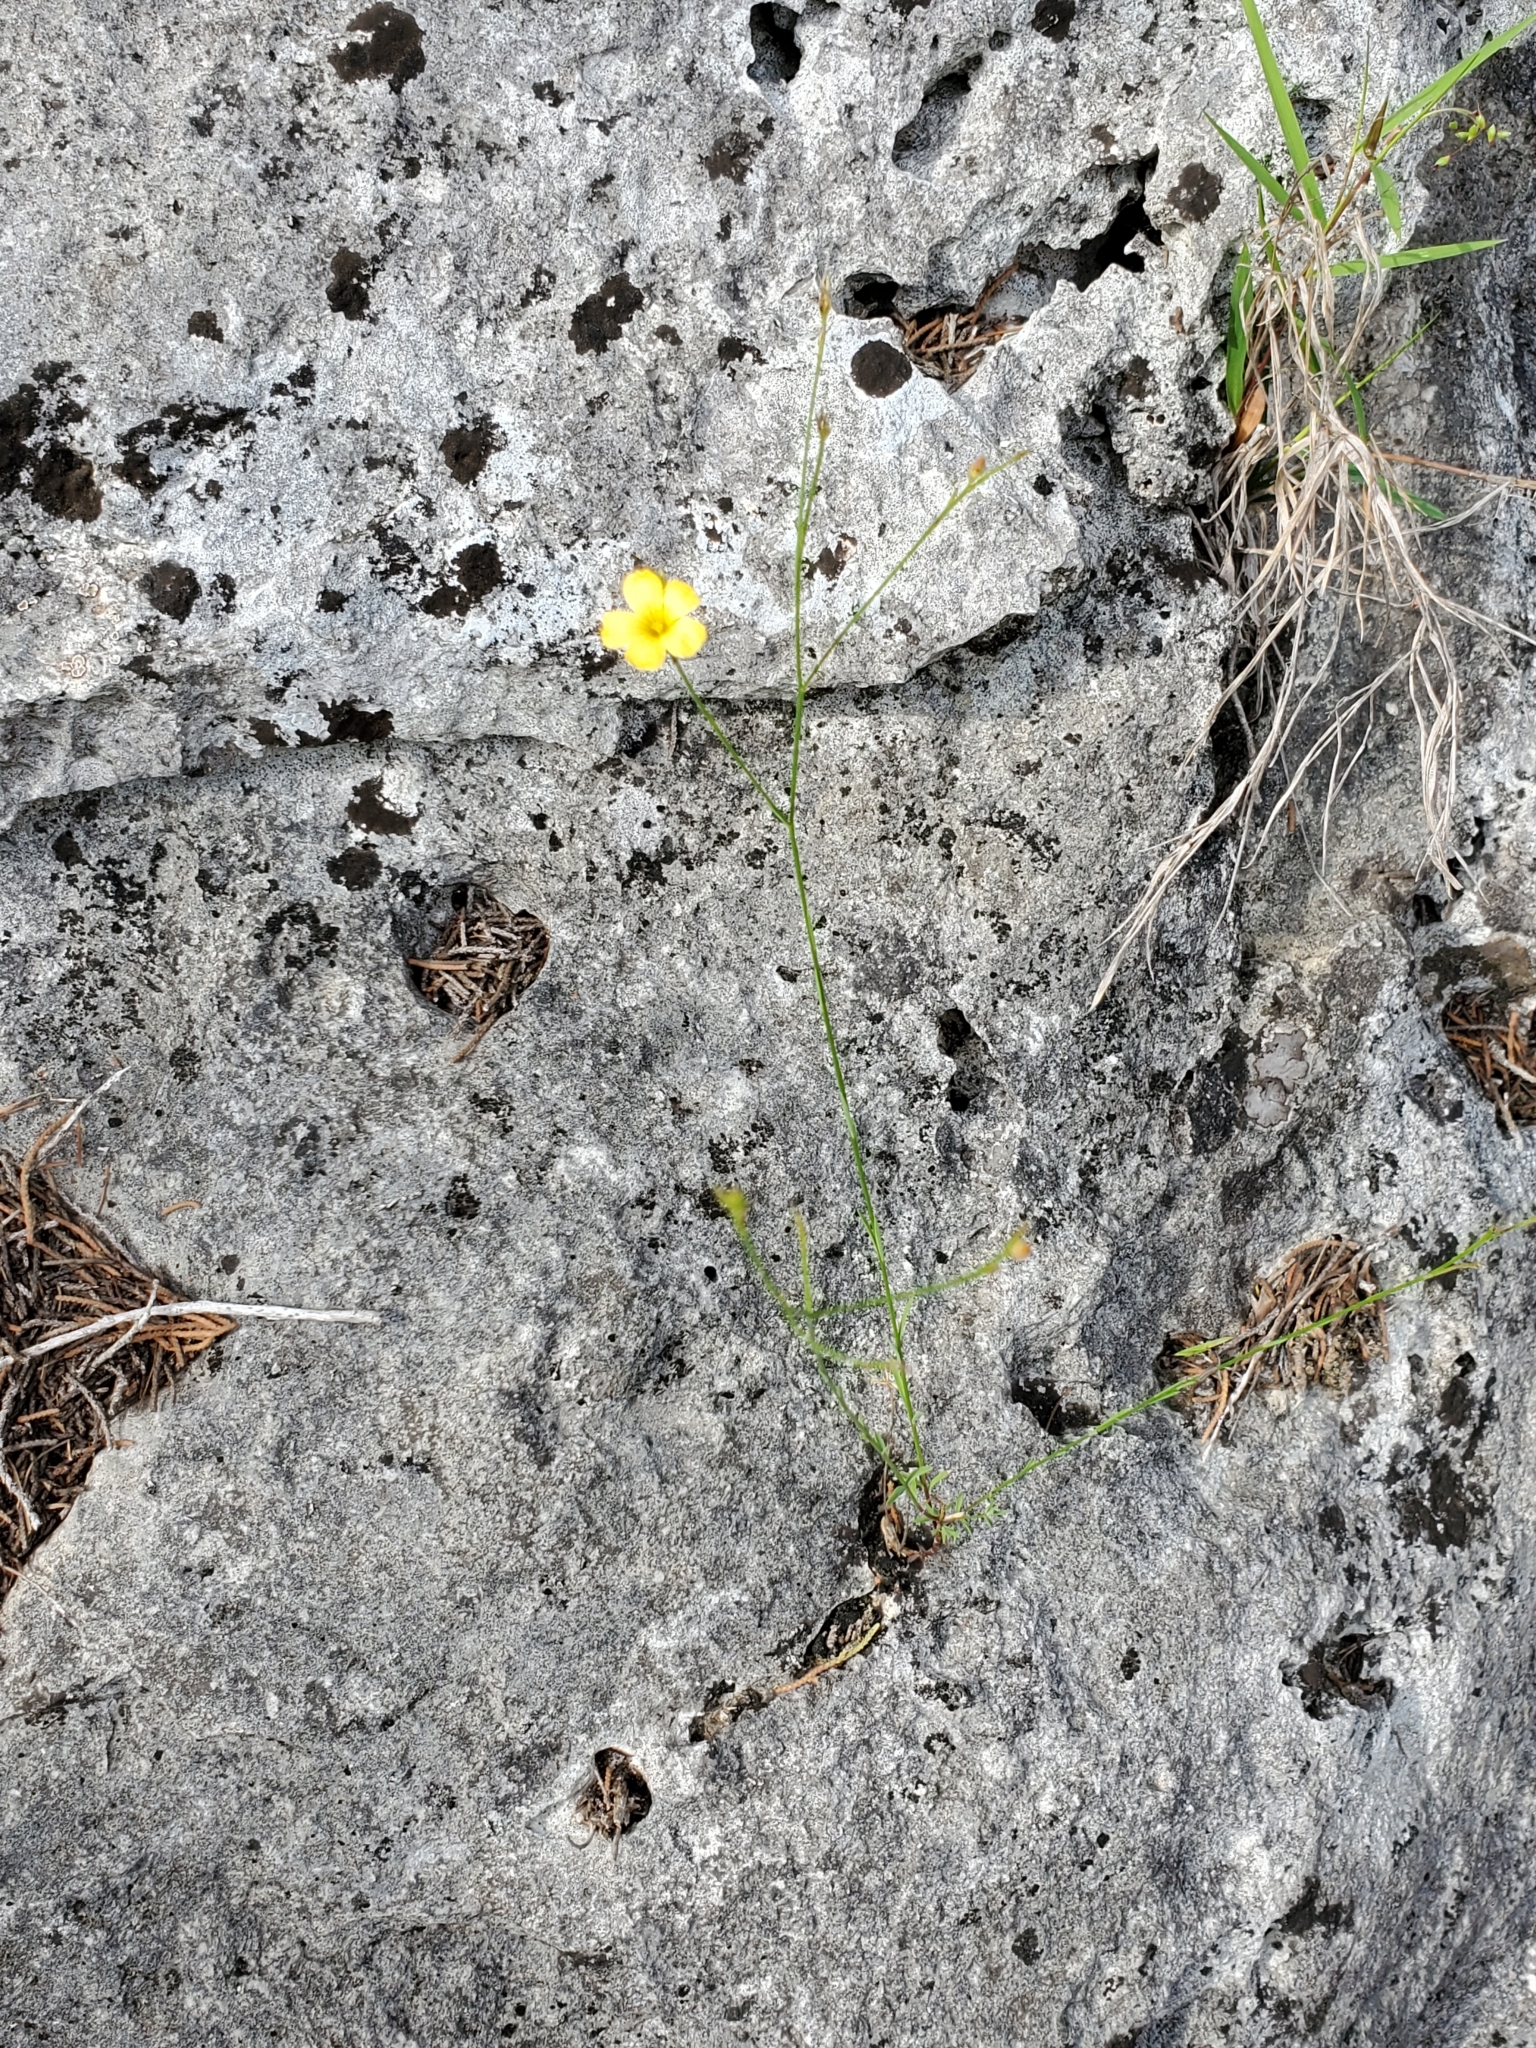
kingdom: Plantae
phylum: Tracheophyta
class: Magnoliopsida
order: Malpighiales
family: Linaceae
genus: Linum
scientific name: Linum rupestre
